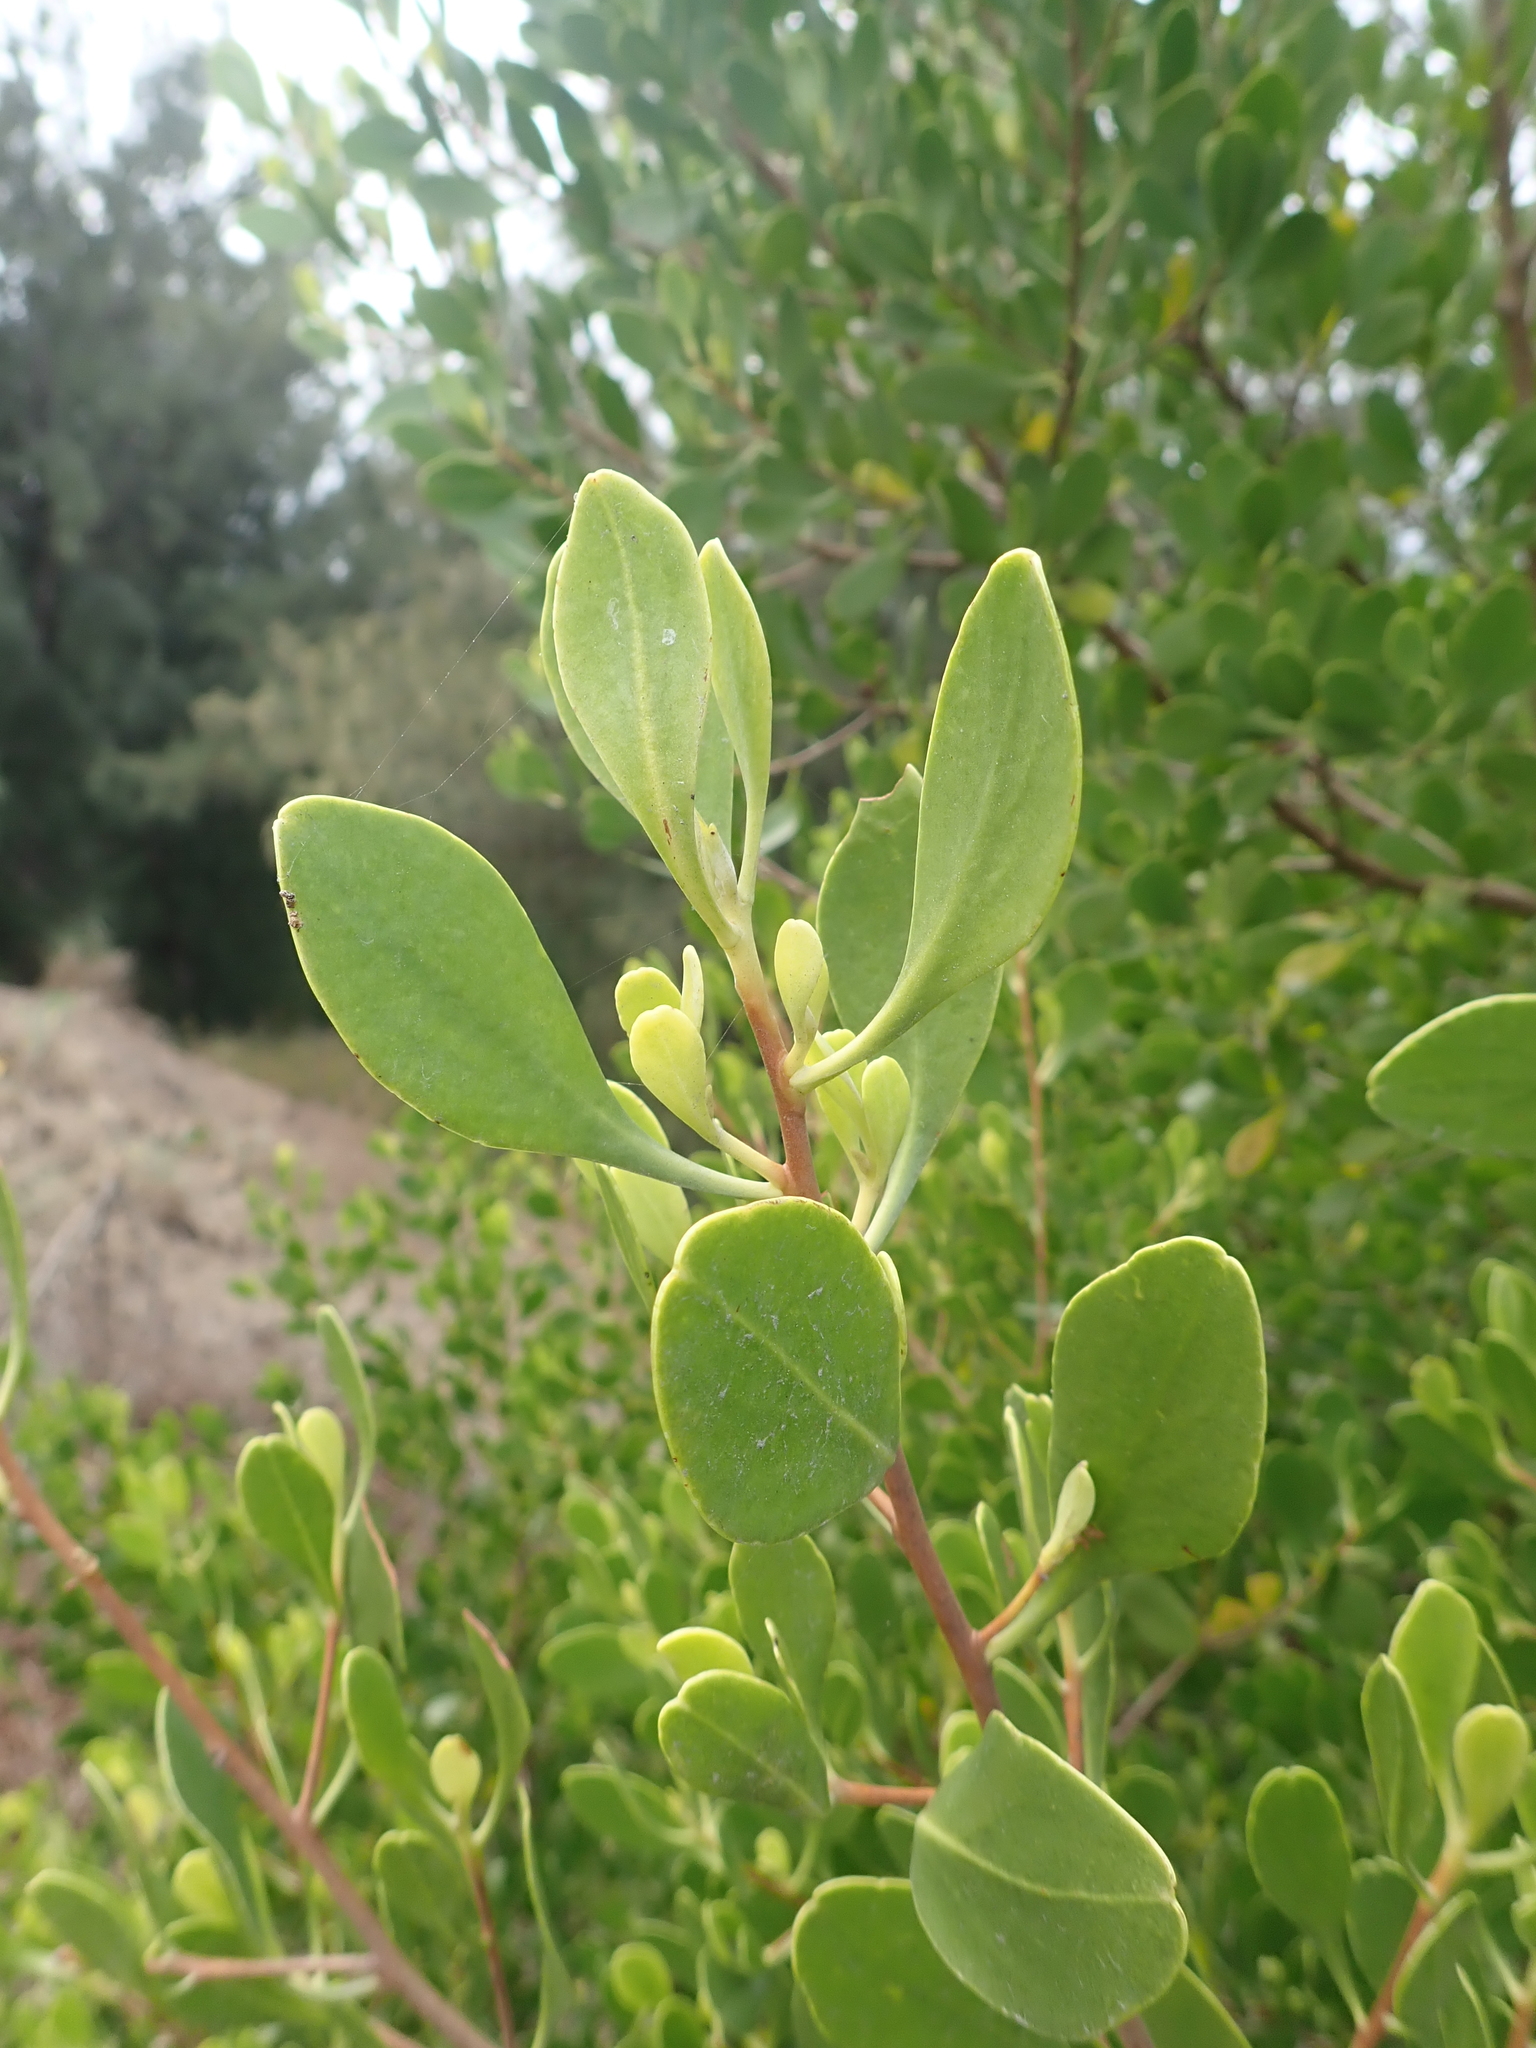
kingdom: Plantae
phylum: Tracheophyta
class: Magnoliopsida
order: Myrtales
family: Combretaceae
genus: Lumnitzera
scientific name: Lumnitzera racemosa
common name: White-flowered black mangrove
